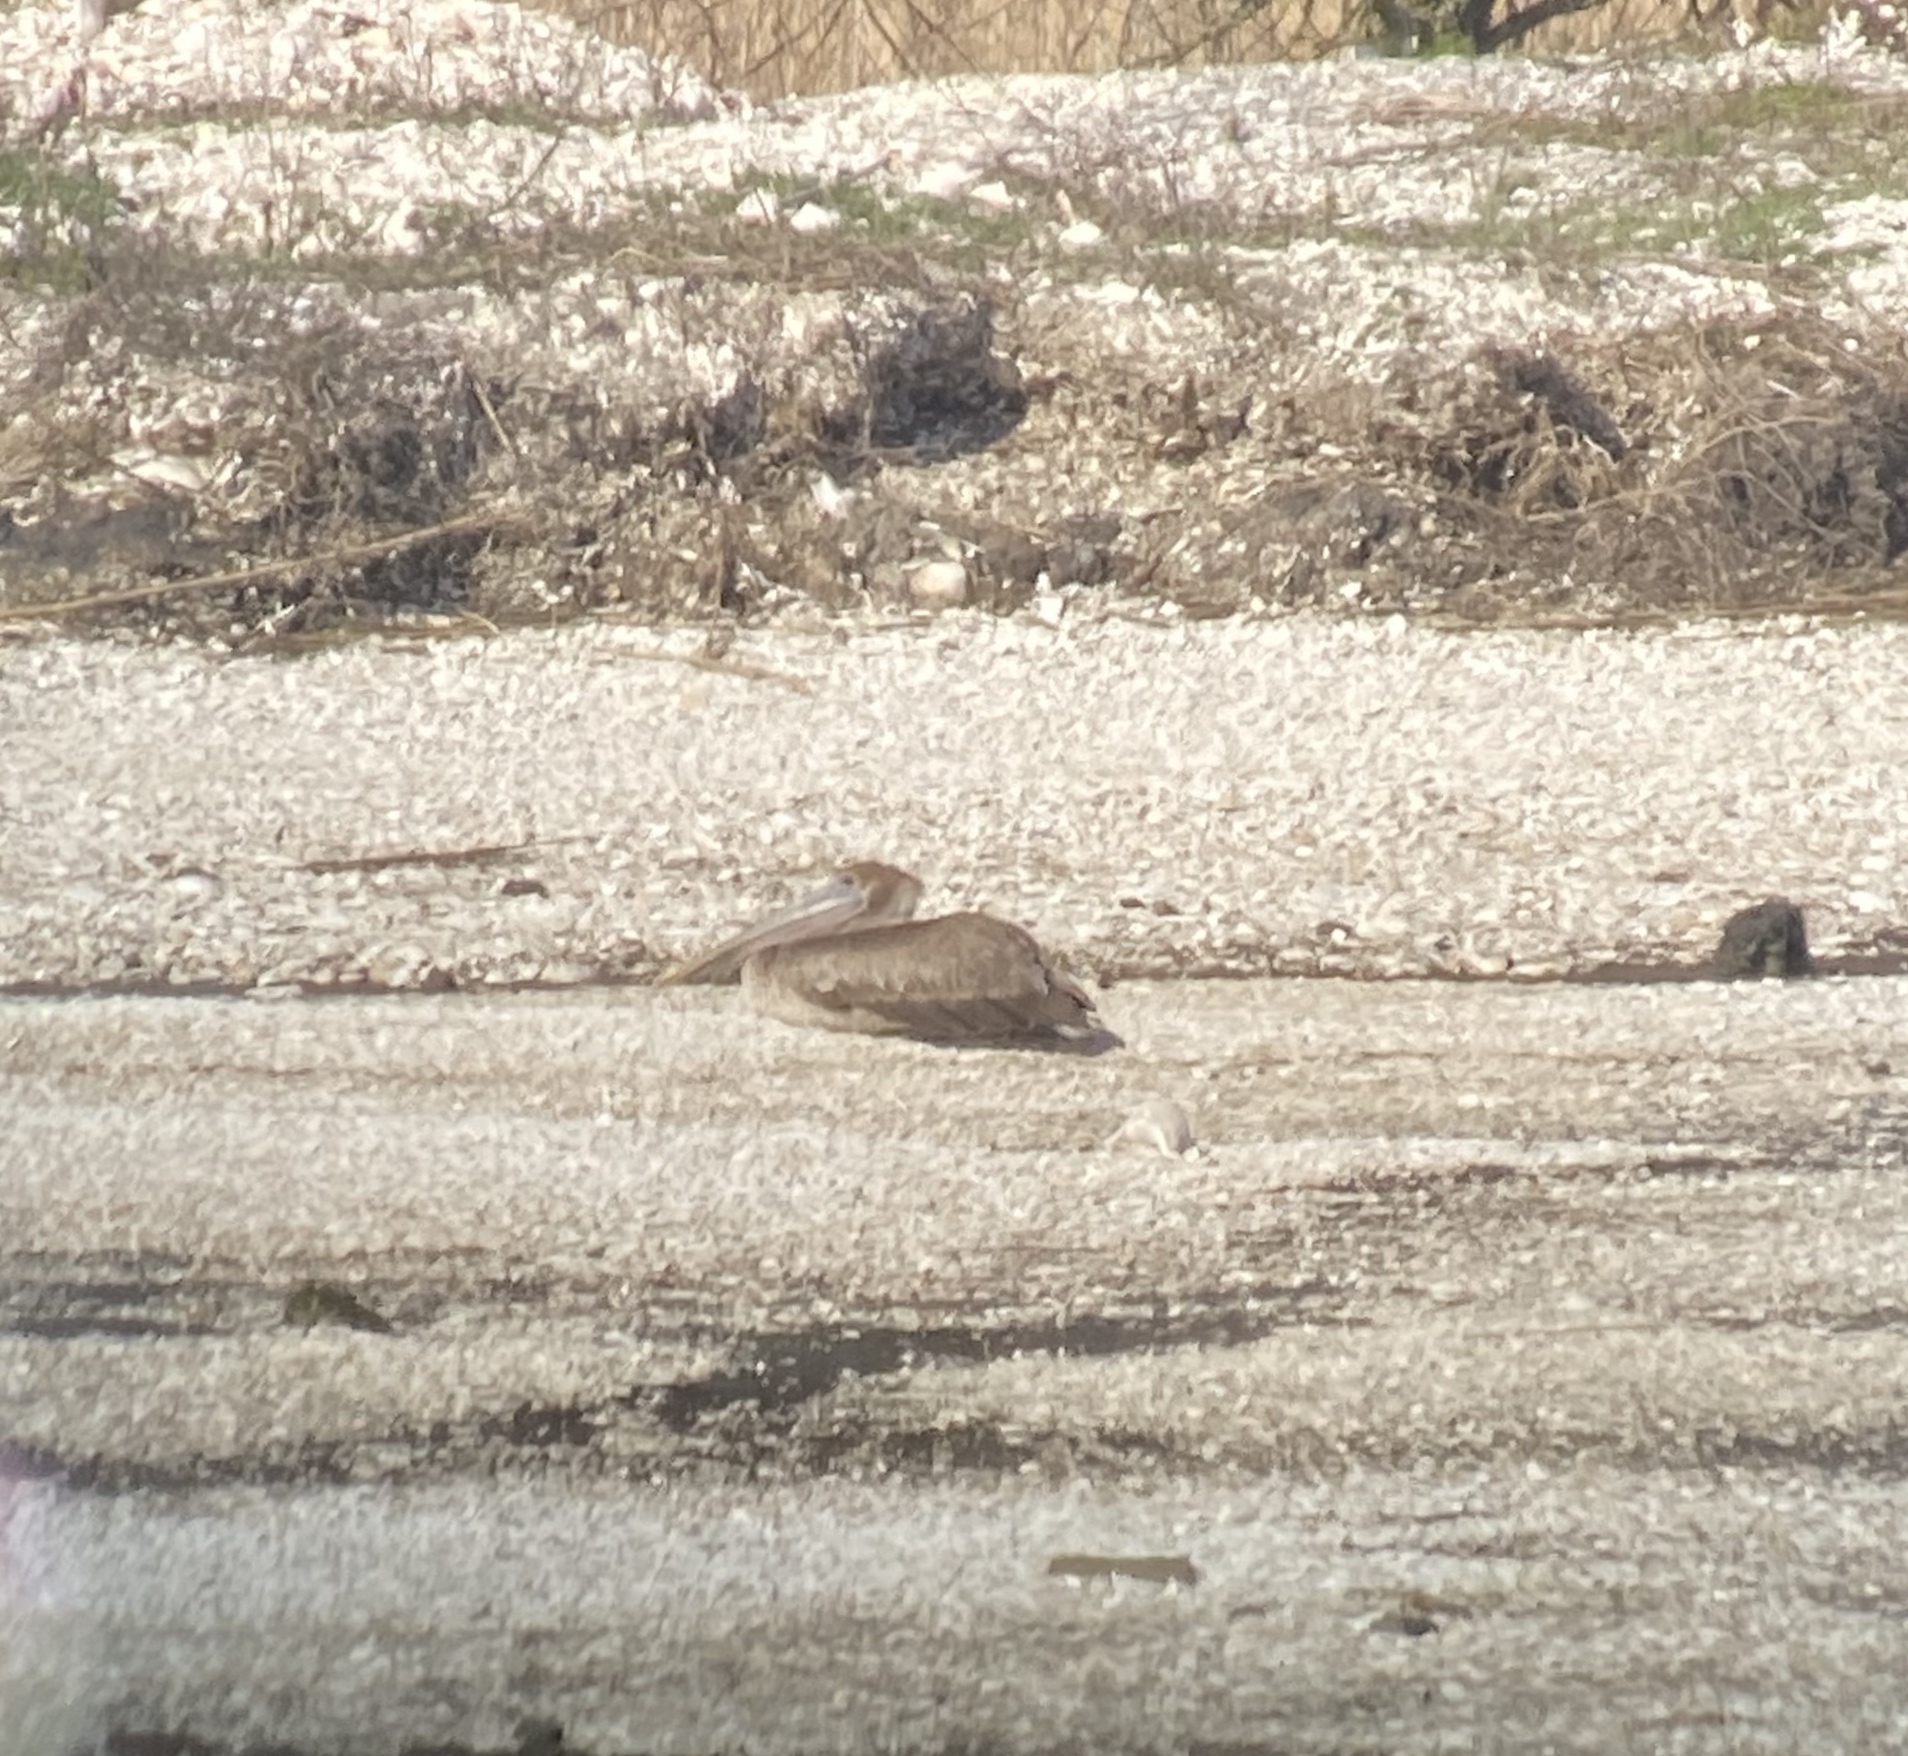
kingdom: Animalia
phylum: Chordata
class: Aves
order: Pelecaniformes
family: Pelecanidae
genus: Pelecanus
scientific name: Pelecanus occidentalis
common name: Brown pelican
